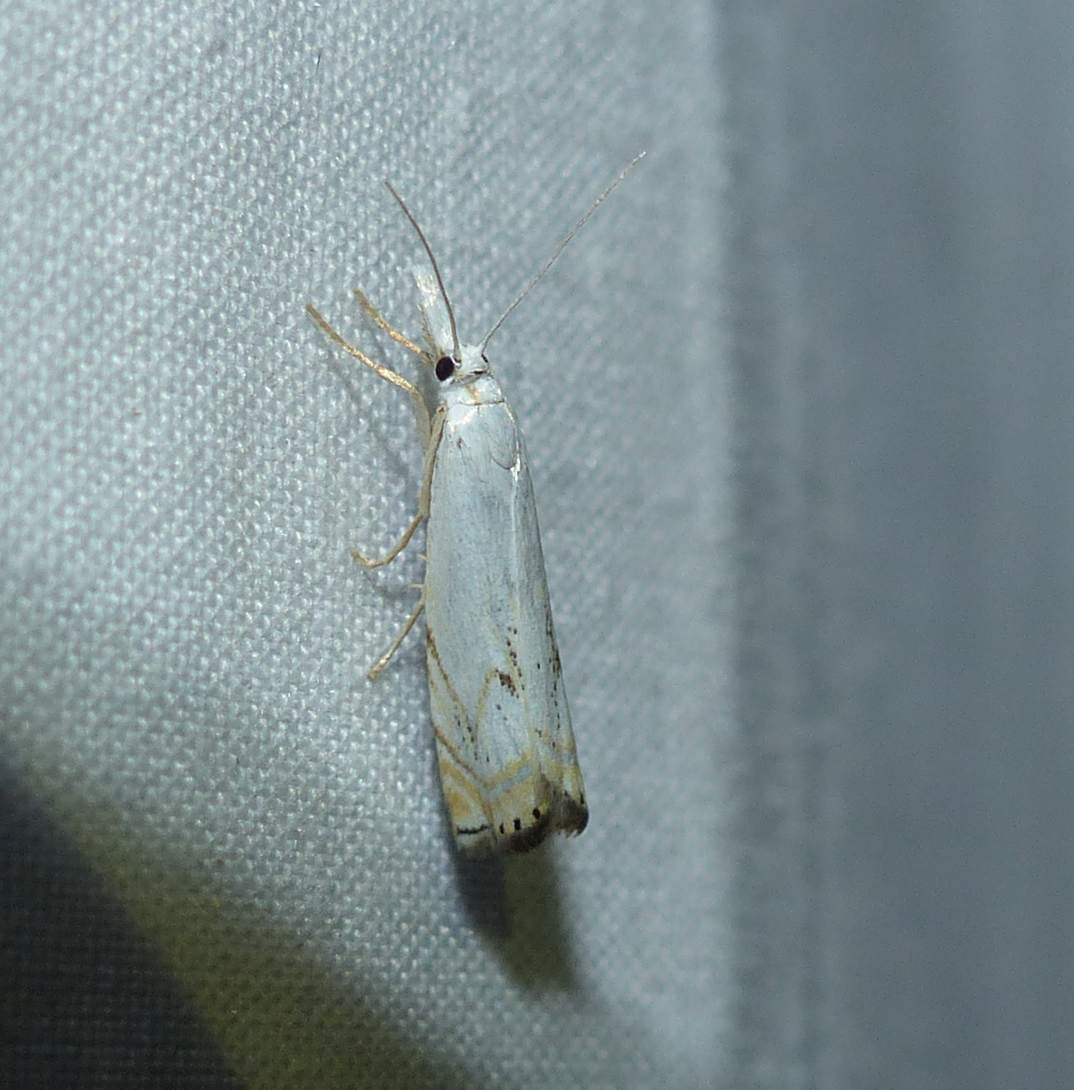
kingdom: Animalia
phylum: Arthropoda
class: Insecta
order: Lepidoptera
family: Crambidae
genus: Crambus
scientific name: Crambus albellus
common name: Small white grass-veneer
